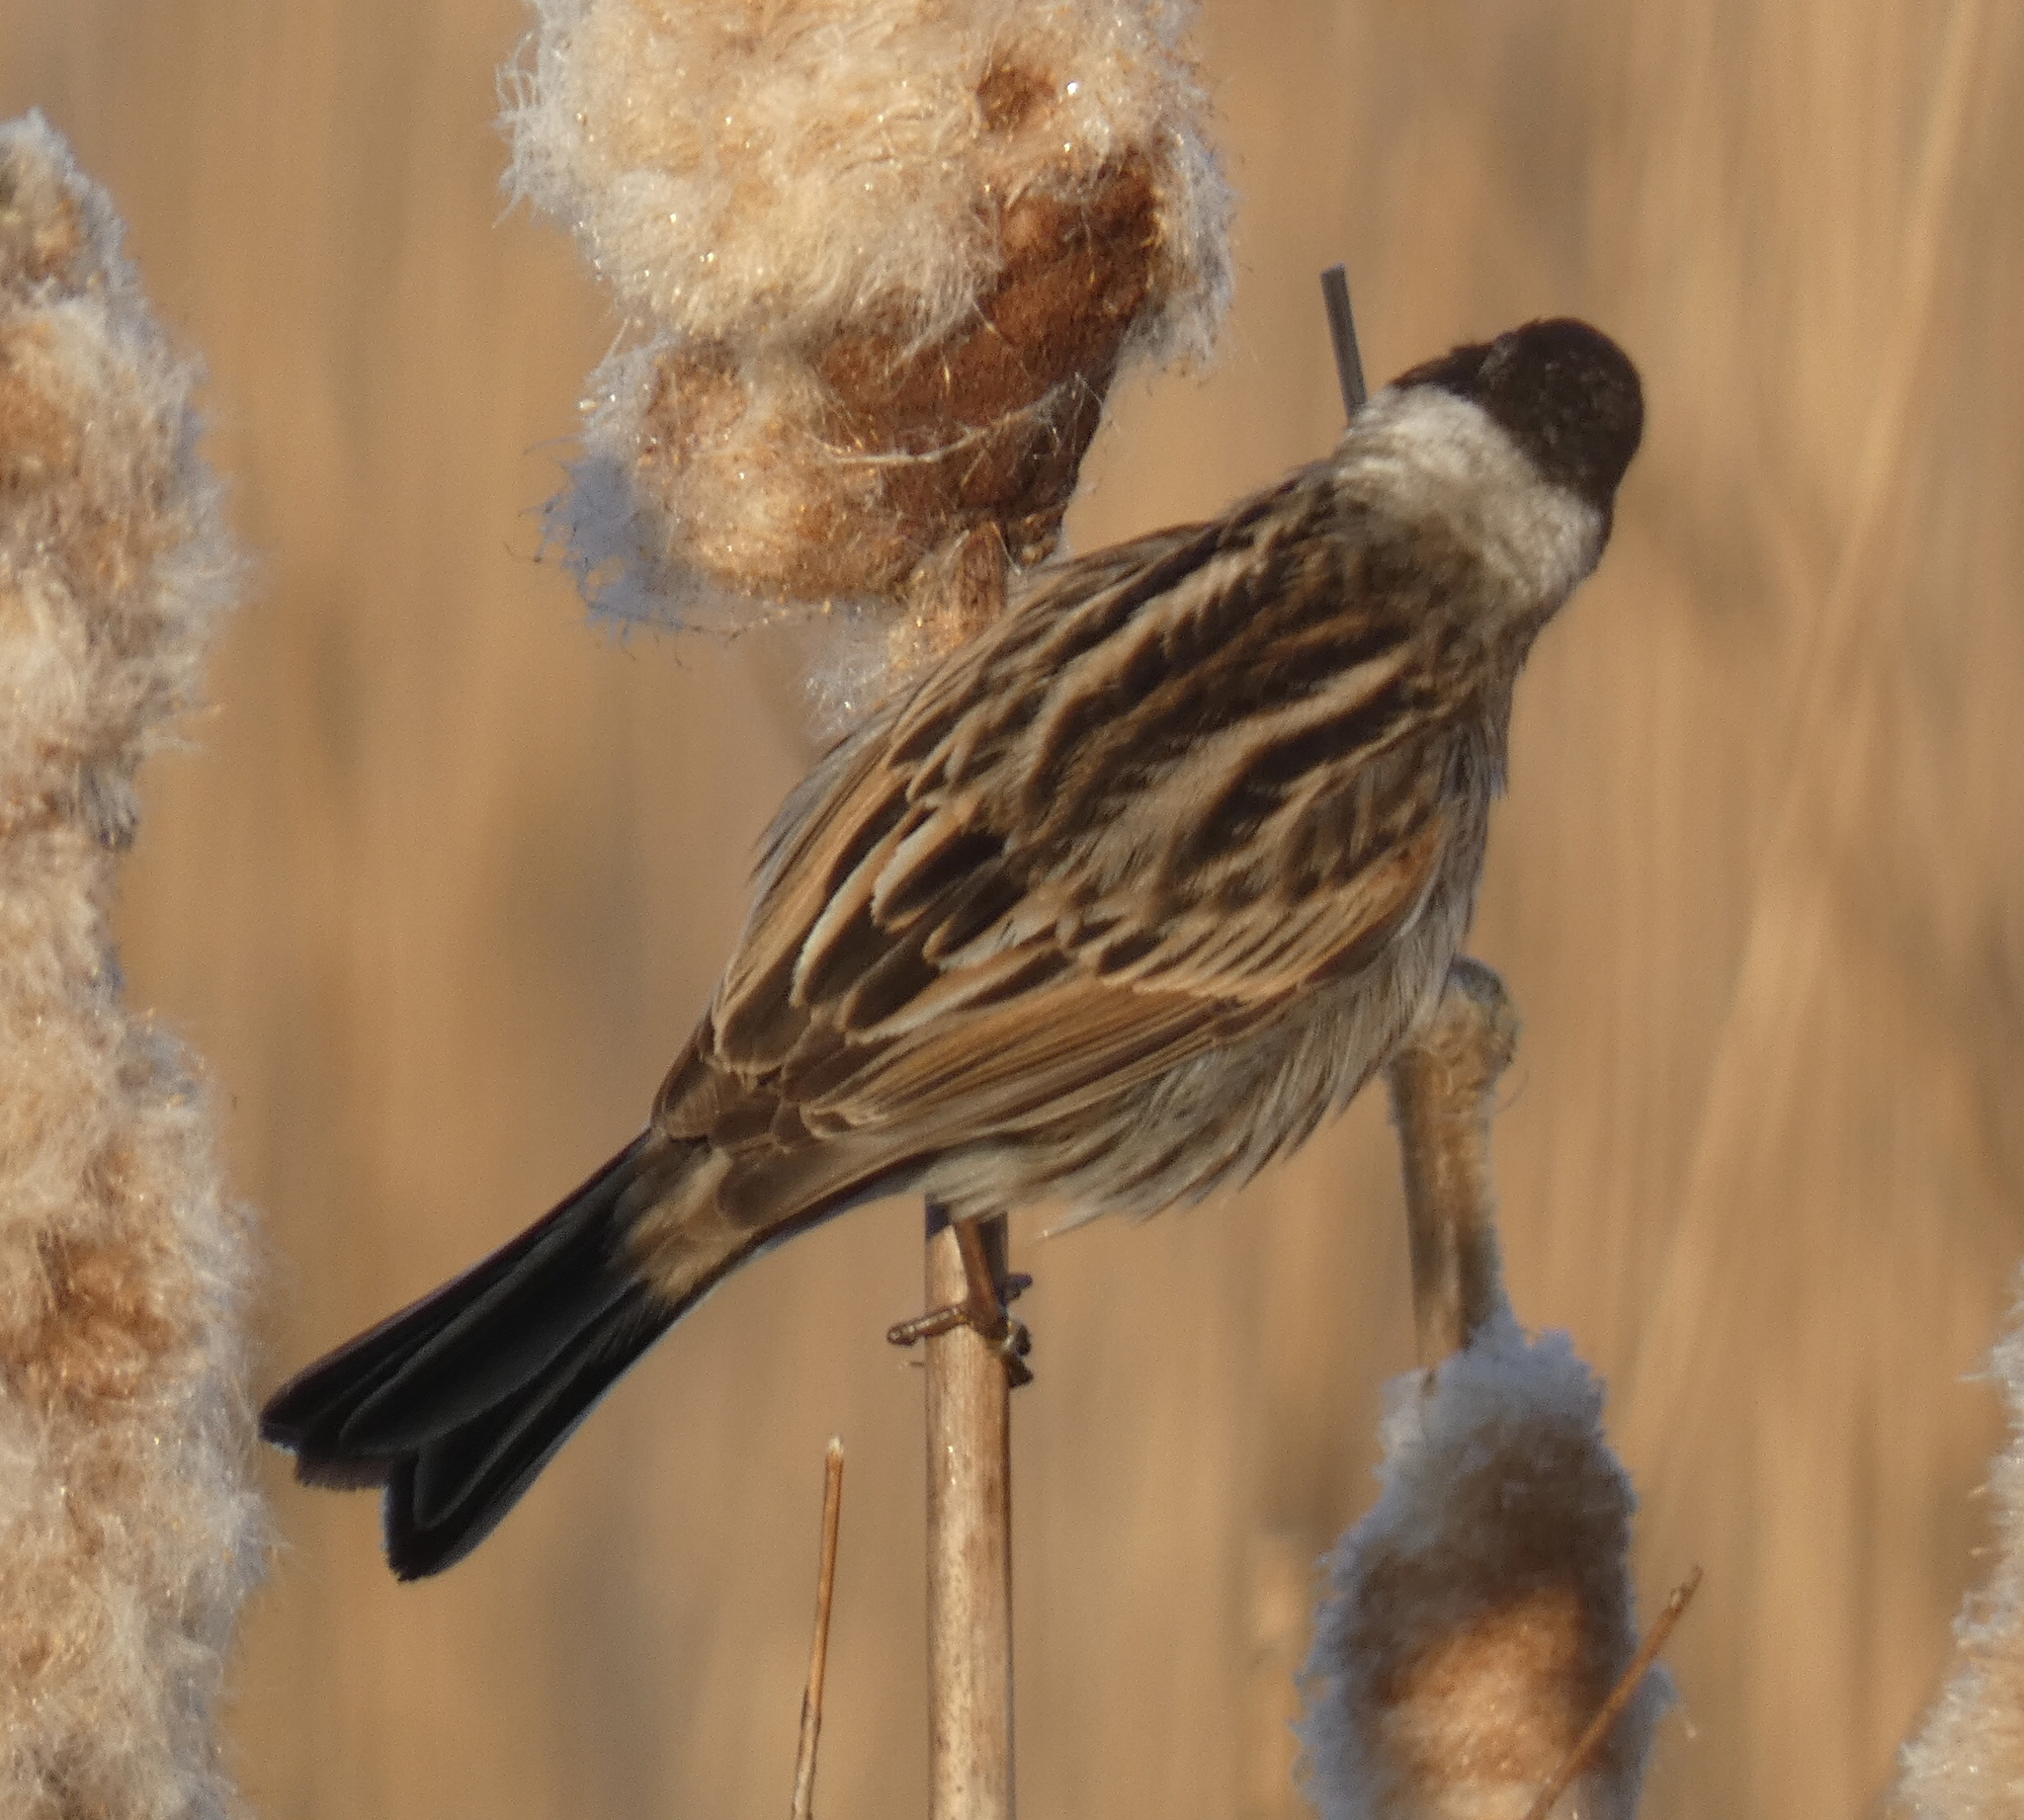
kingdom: Animalia
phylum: Chordata
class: Aves
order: Passeriformes
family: Emberizidae
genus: Emberiza
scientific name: Emberiza schoeniclus
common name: Reed bunting
